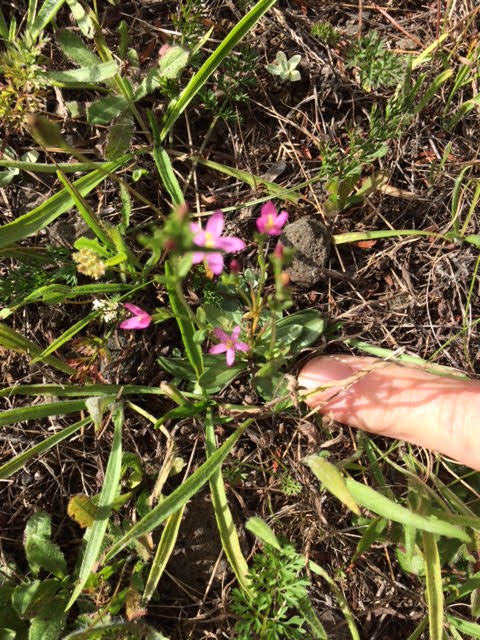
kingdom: Plantae
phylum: Tracheophyta
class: Magnoliopsida
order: Gentianales
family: Gentianaceae
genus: Centaurium
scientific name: Centaurium erythraea
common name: Common centaury
